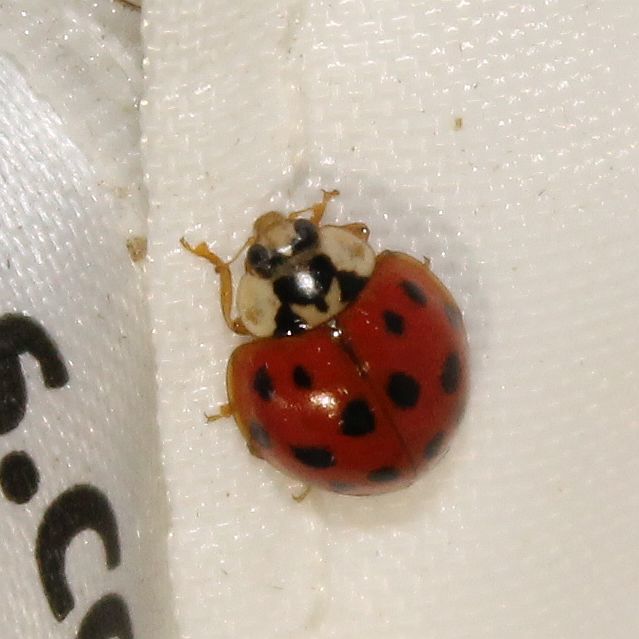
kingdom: Animalia
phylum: Arthropoda
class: Insecta
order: Coleoptera
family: Coccinellidae
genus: Harmonia
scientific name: Harmonia axyridis
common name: Harlequin ladybird
